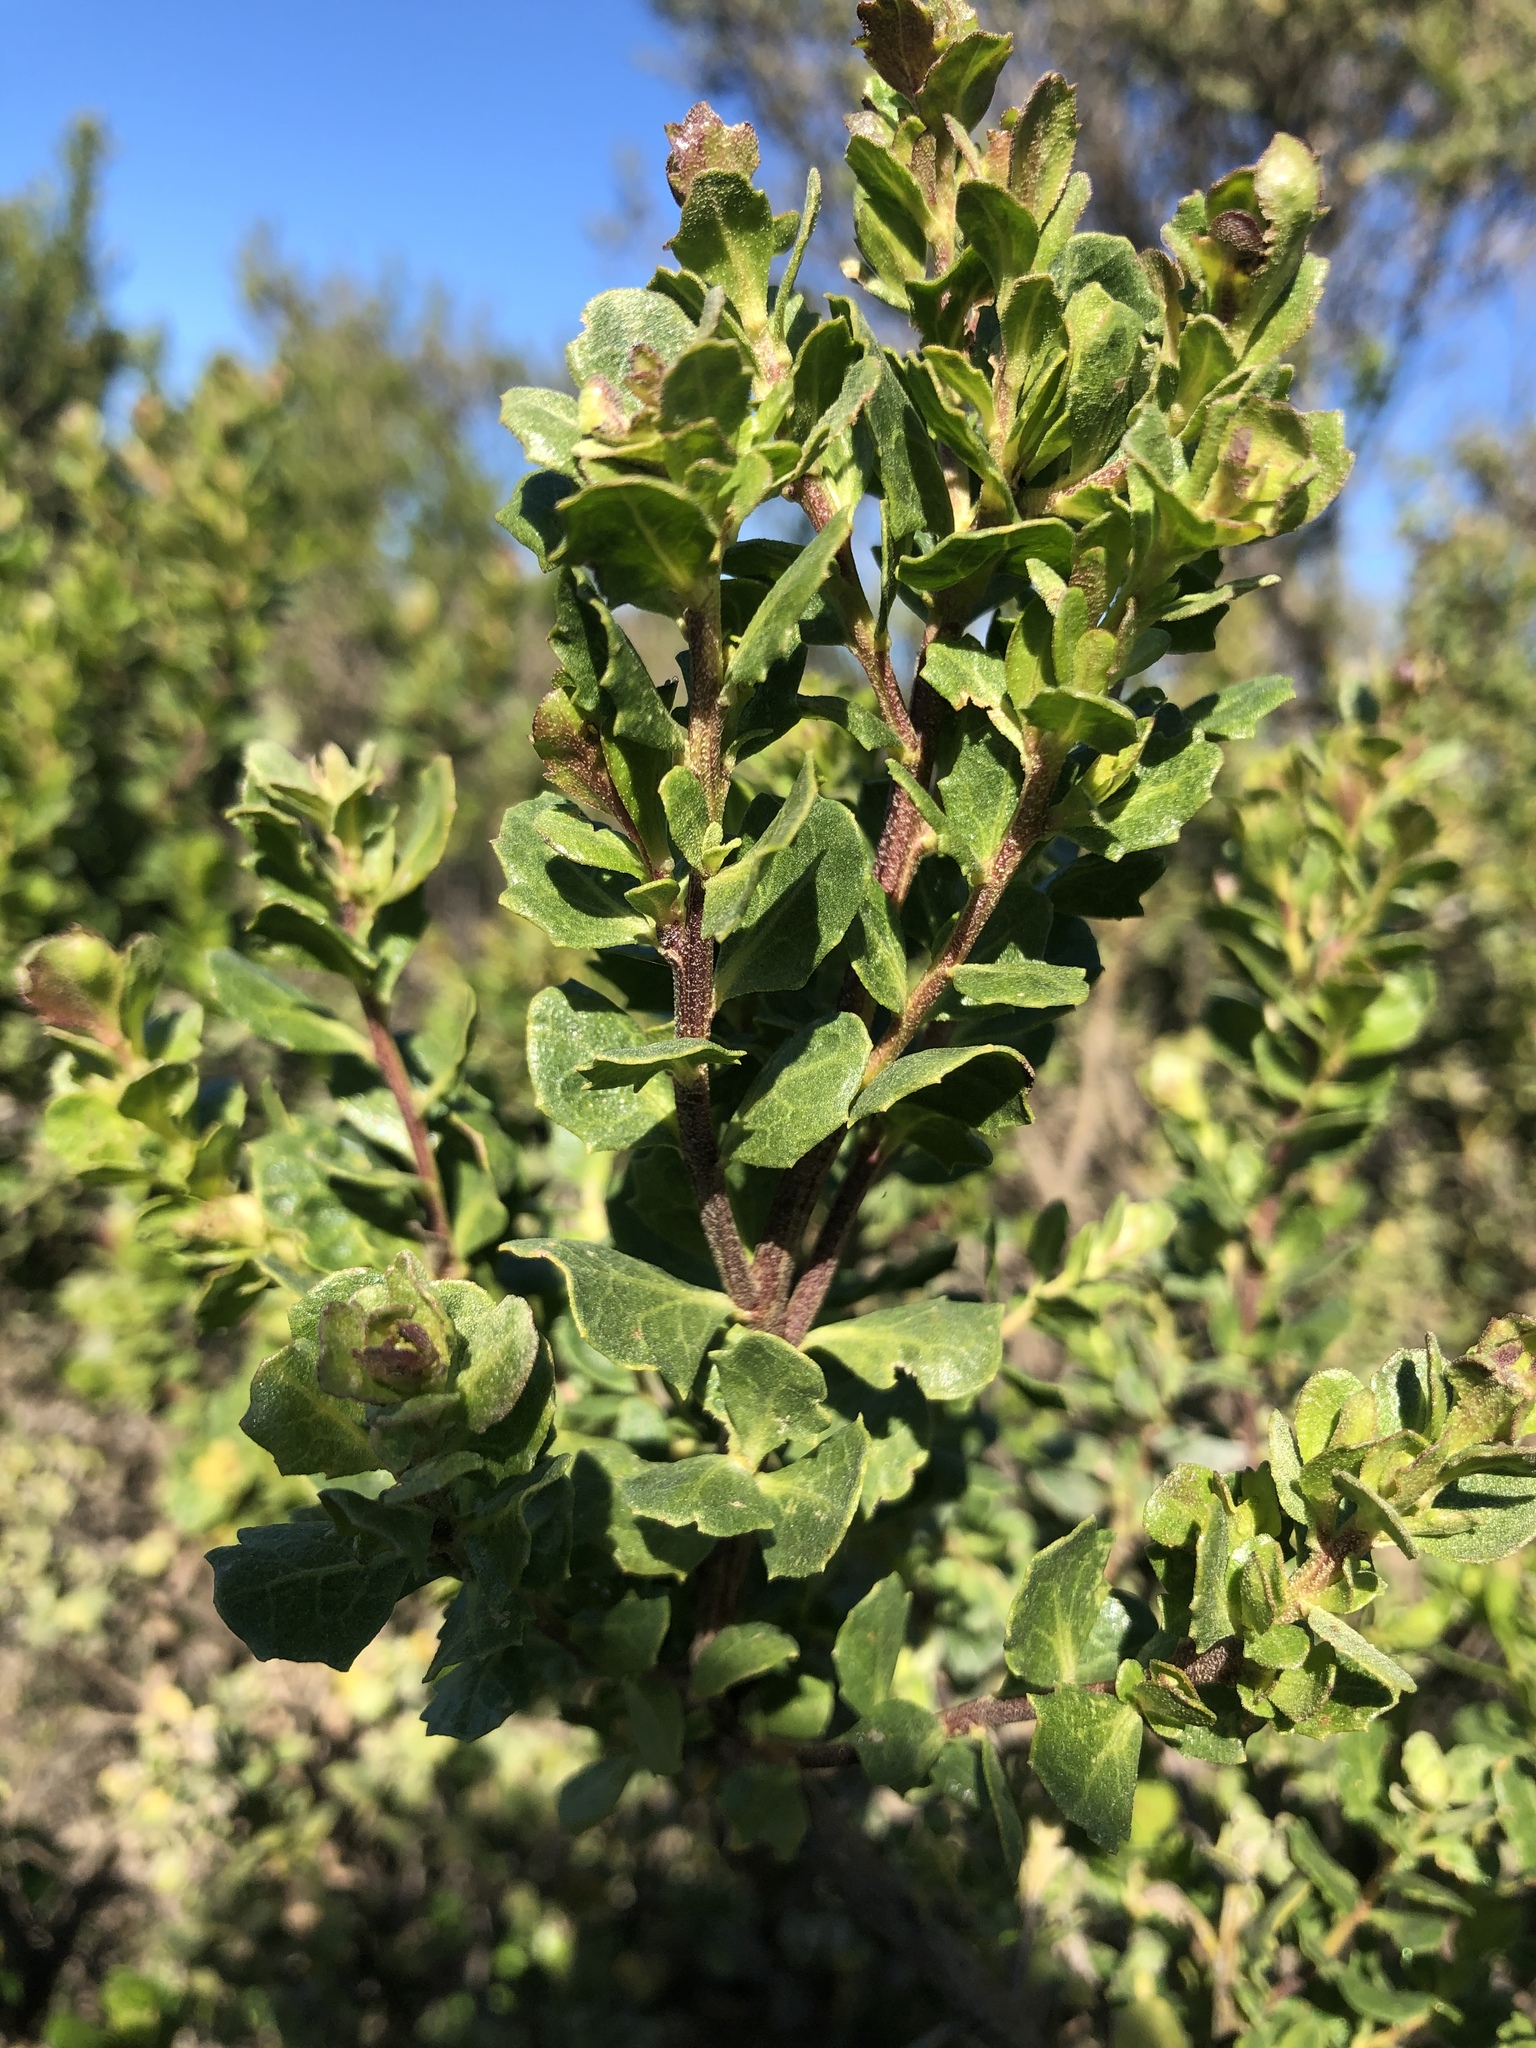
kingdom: Plantae
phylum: Tracheophyta
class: Magnoliopsida
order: Asterales
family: Asteraceae
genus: Baccharis
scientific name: Baccharis pilularis
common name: Coyotebrush
